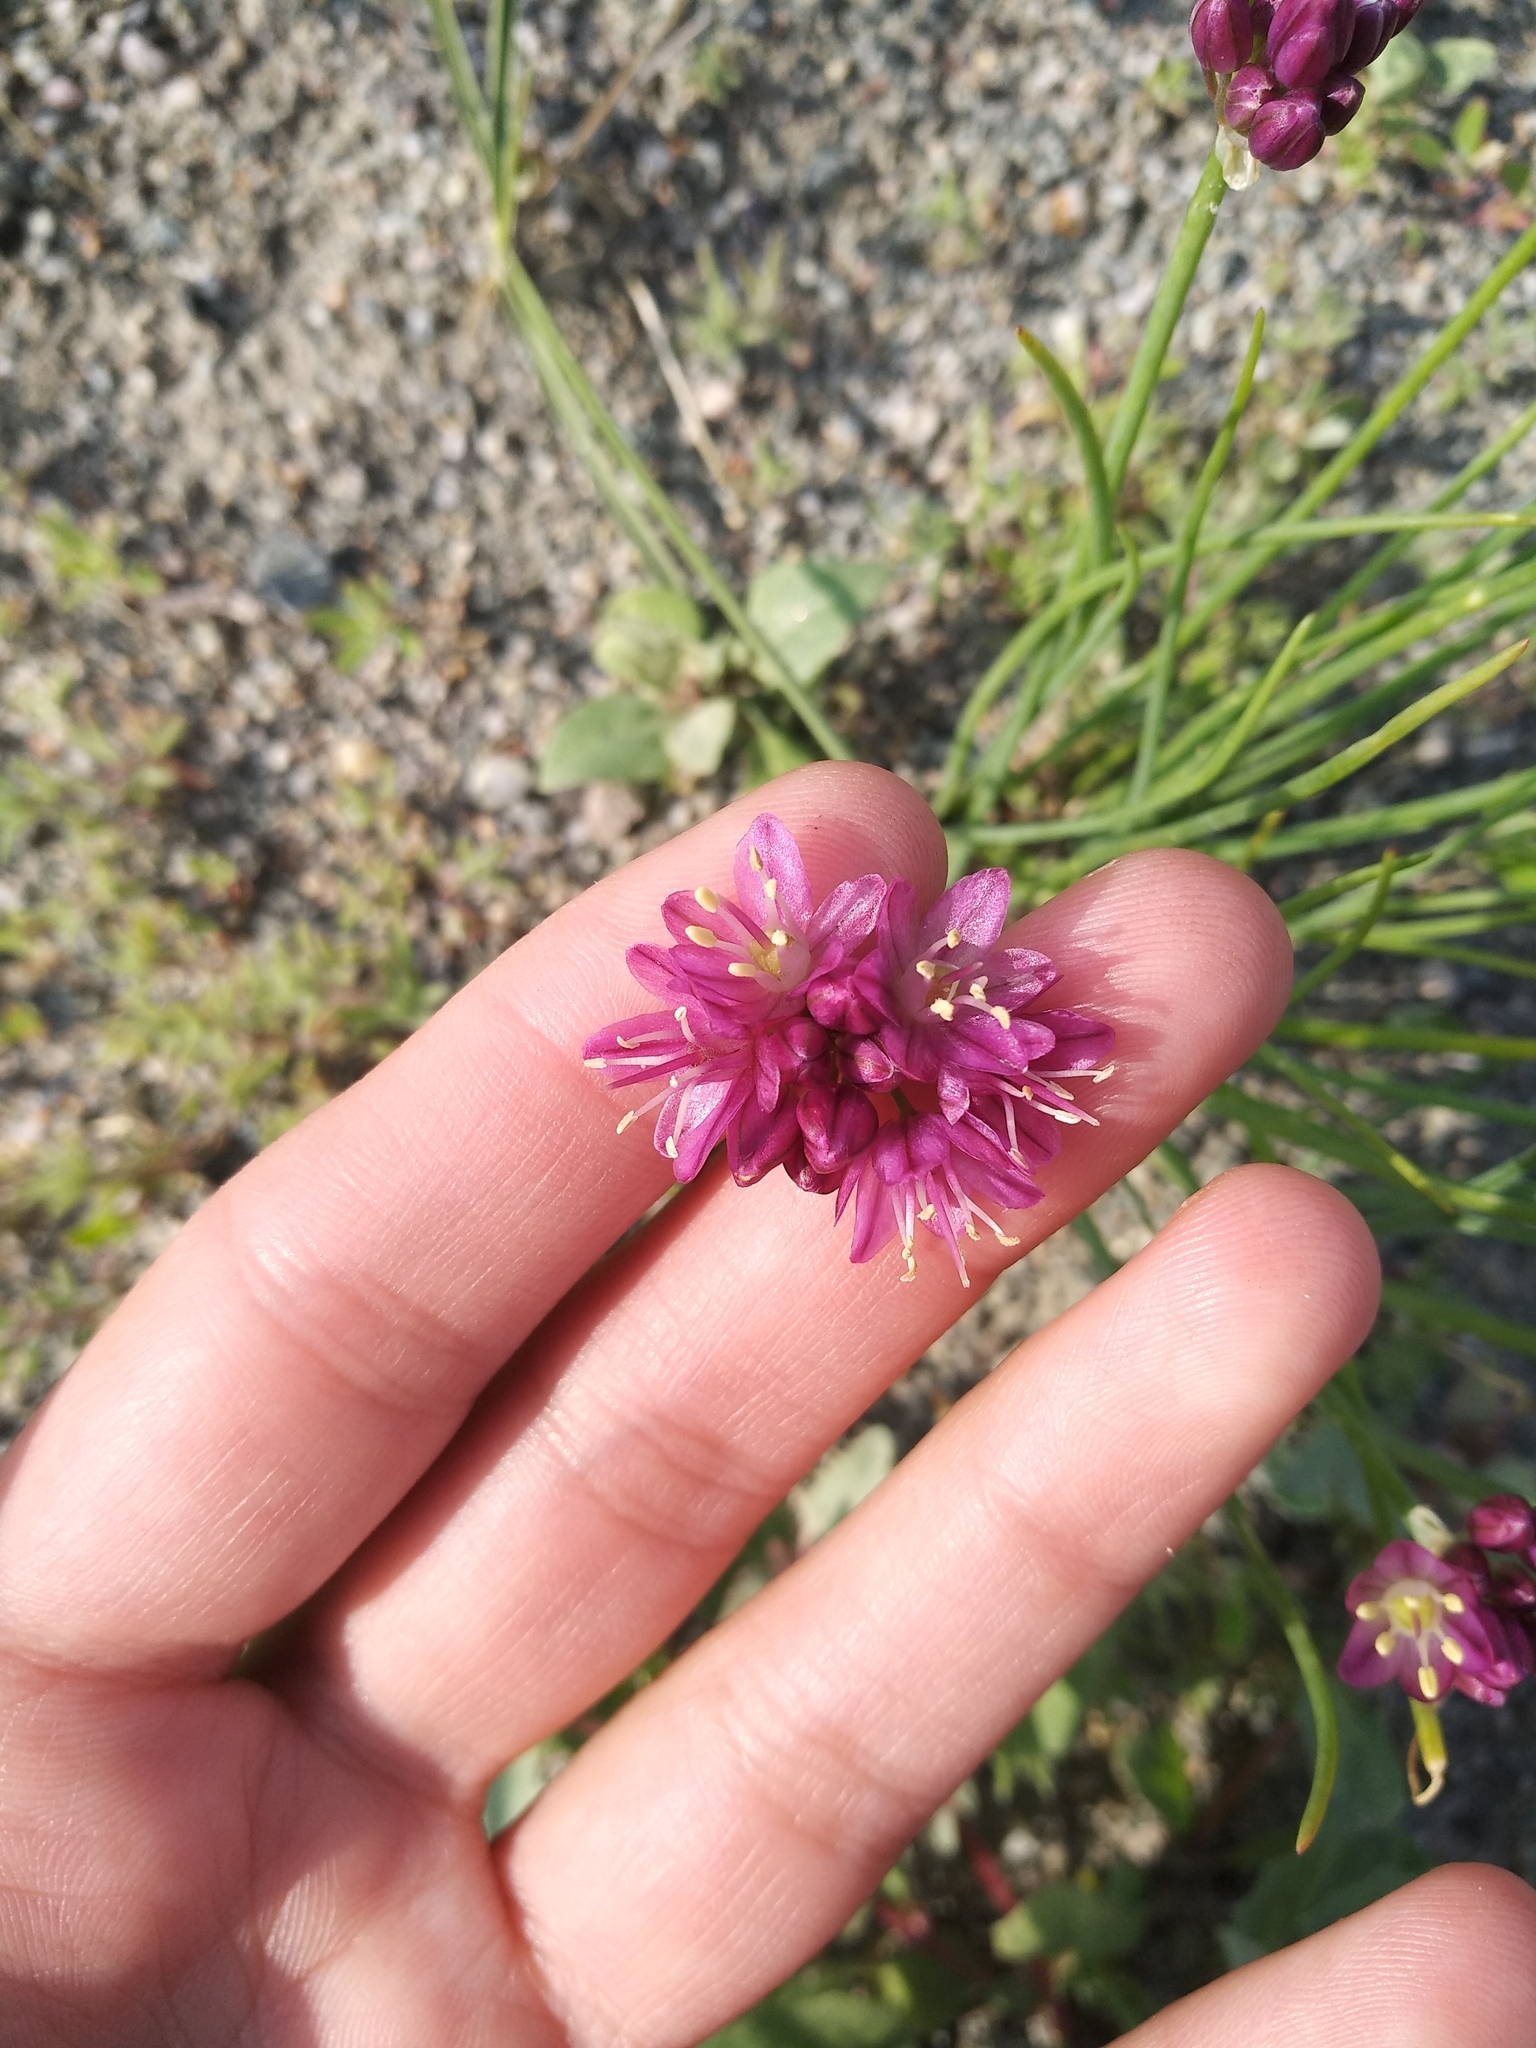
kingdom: Plantae
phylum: Tracheophyta
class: Liliopsida
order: Asparagales
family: Amaryllidaceae
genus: Allium
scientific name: Allium mongolicum
